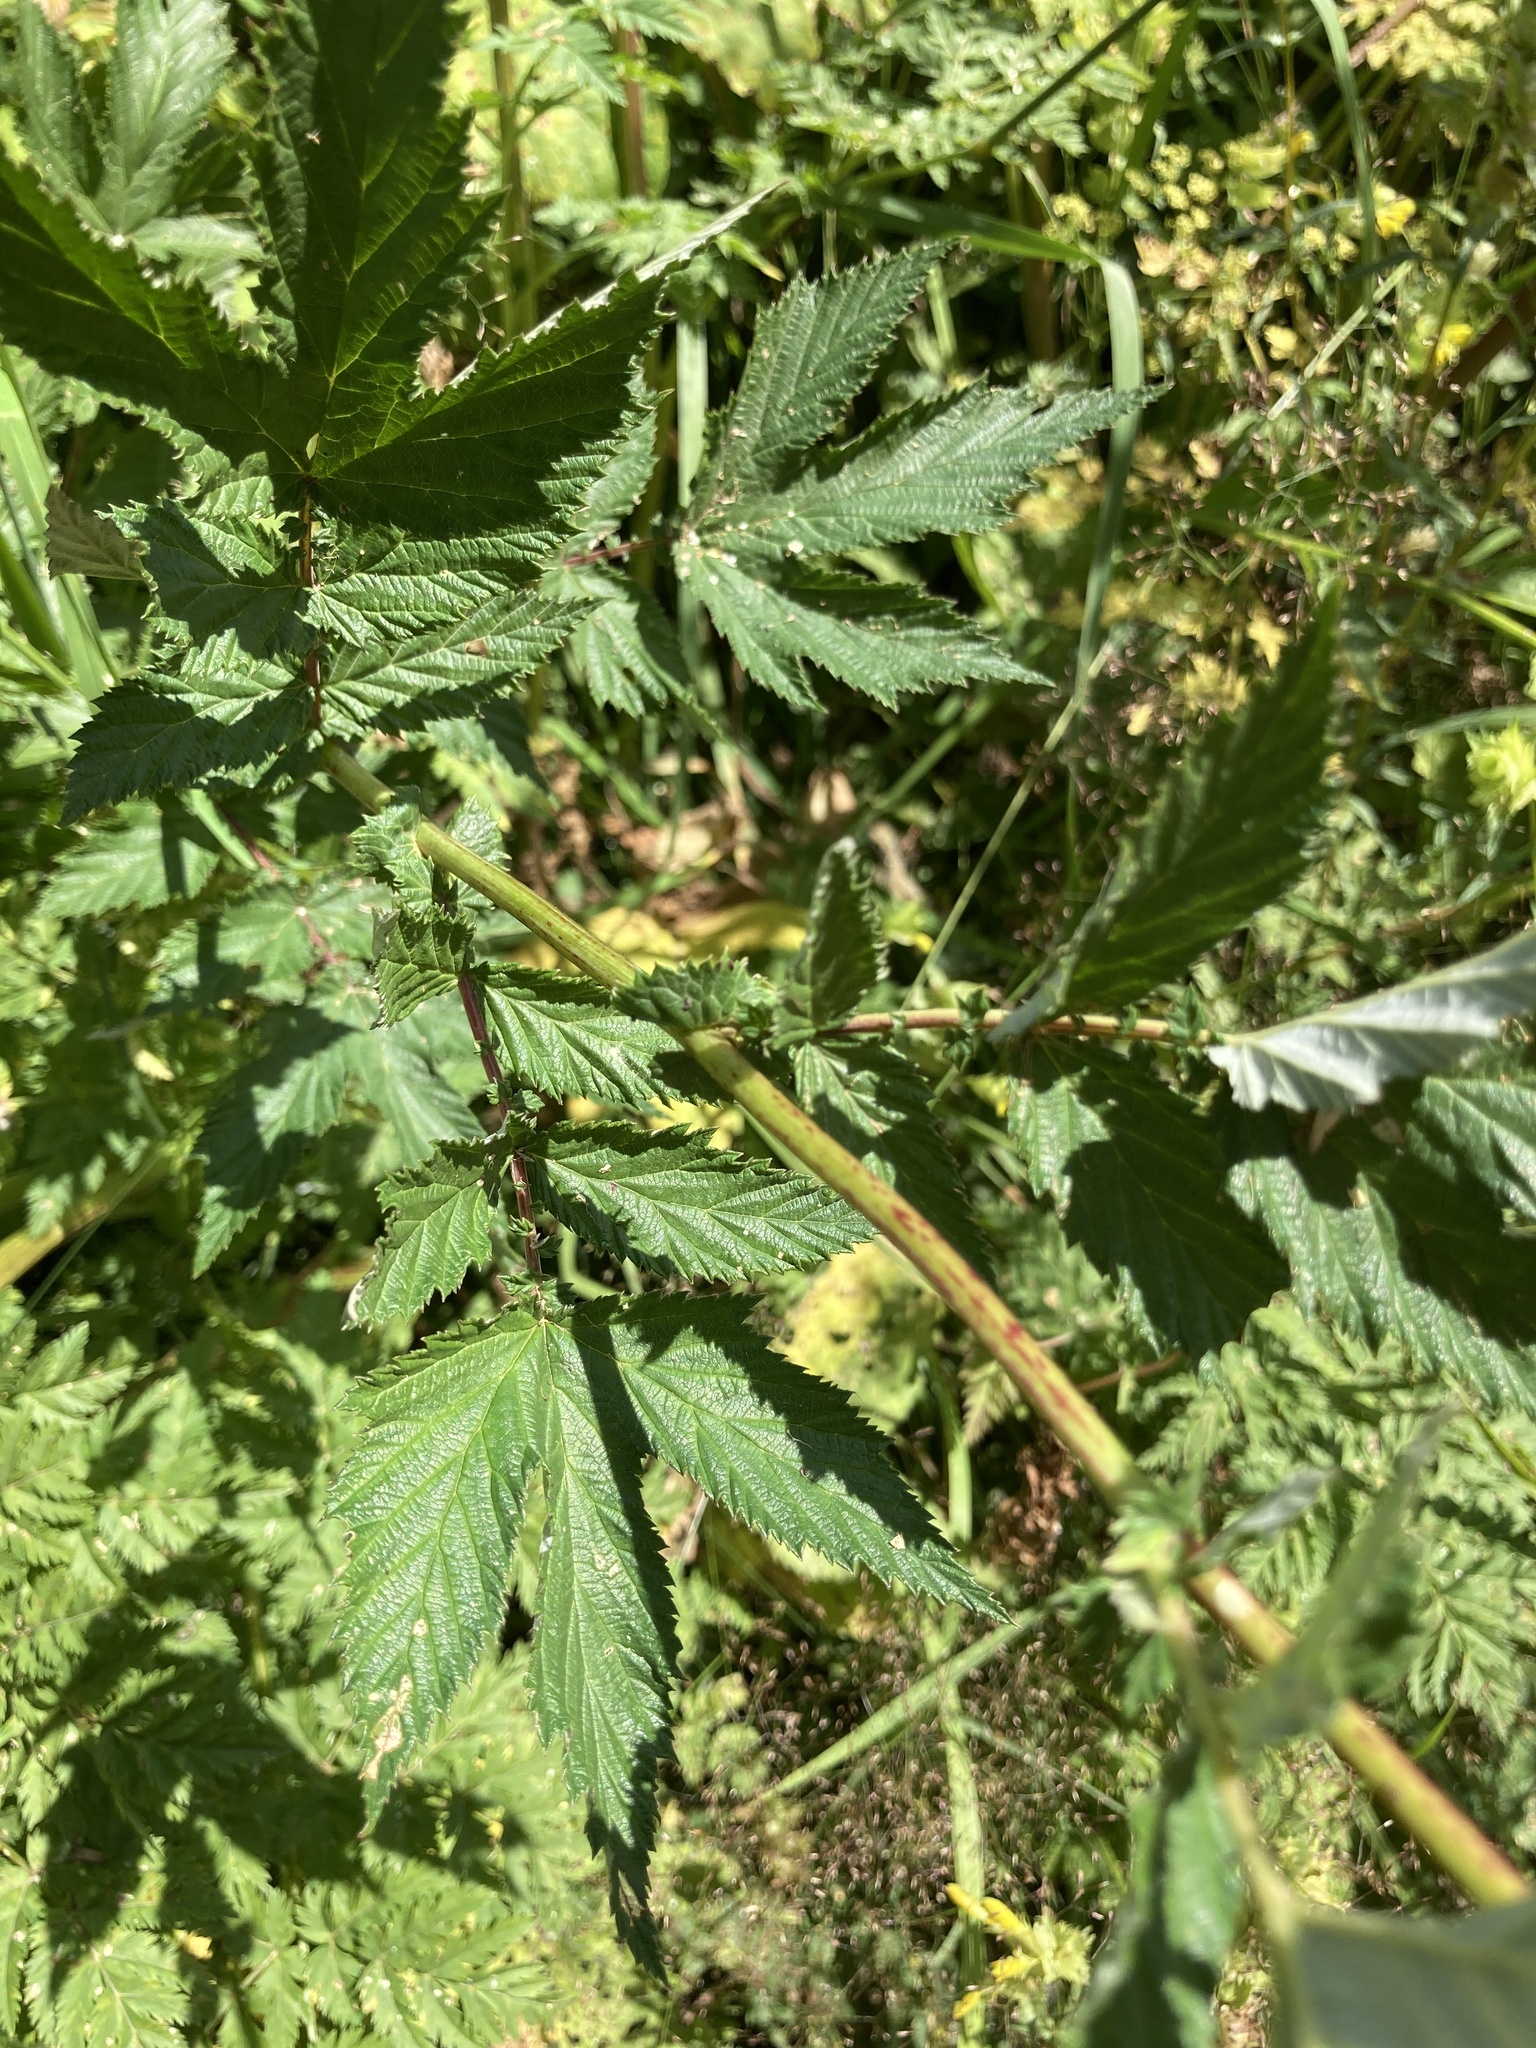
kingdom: Plantae
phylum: Tracheophyta
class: Magnoliopsida
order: Rosales
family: Rosaceae
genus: Filipendula
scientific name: Filipendula ulmaria
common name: Meadowsweet
